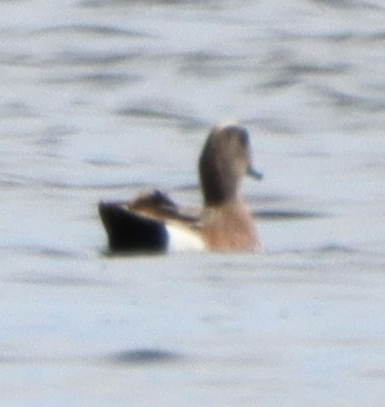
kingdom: Animalia
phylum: Chordata
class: Aves
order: Anseriformes
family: Anatidae
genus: Mareca
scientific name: Mareca americana
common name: American wigeon
